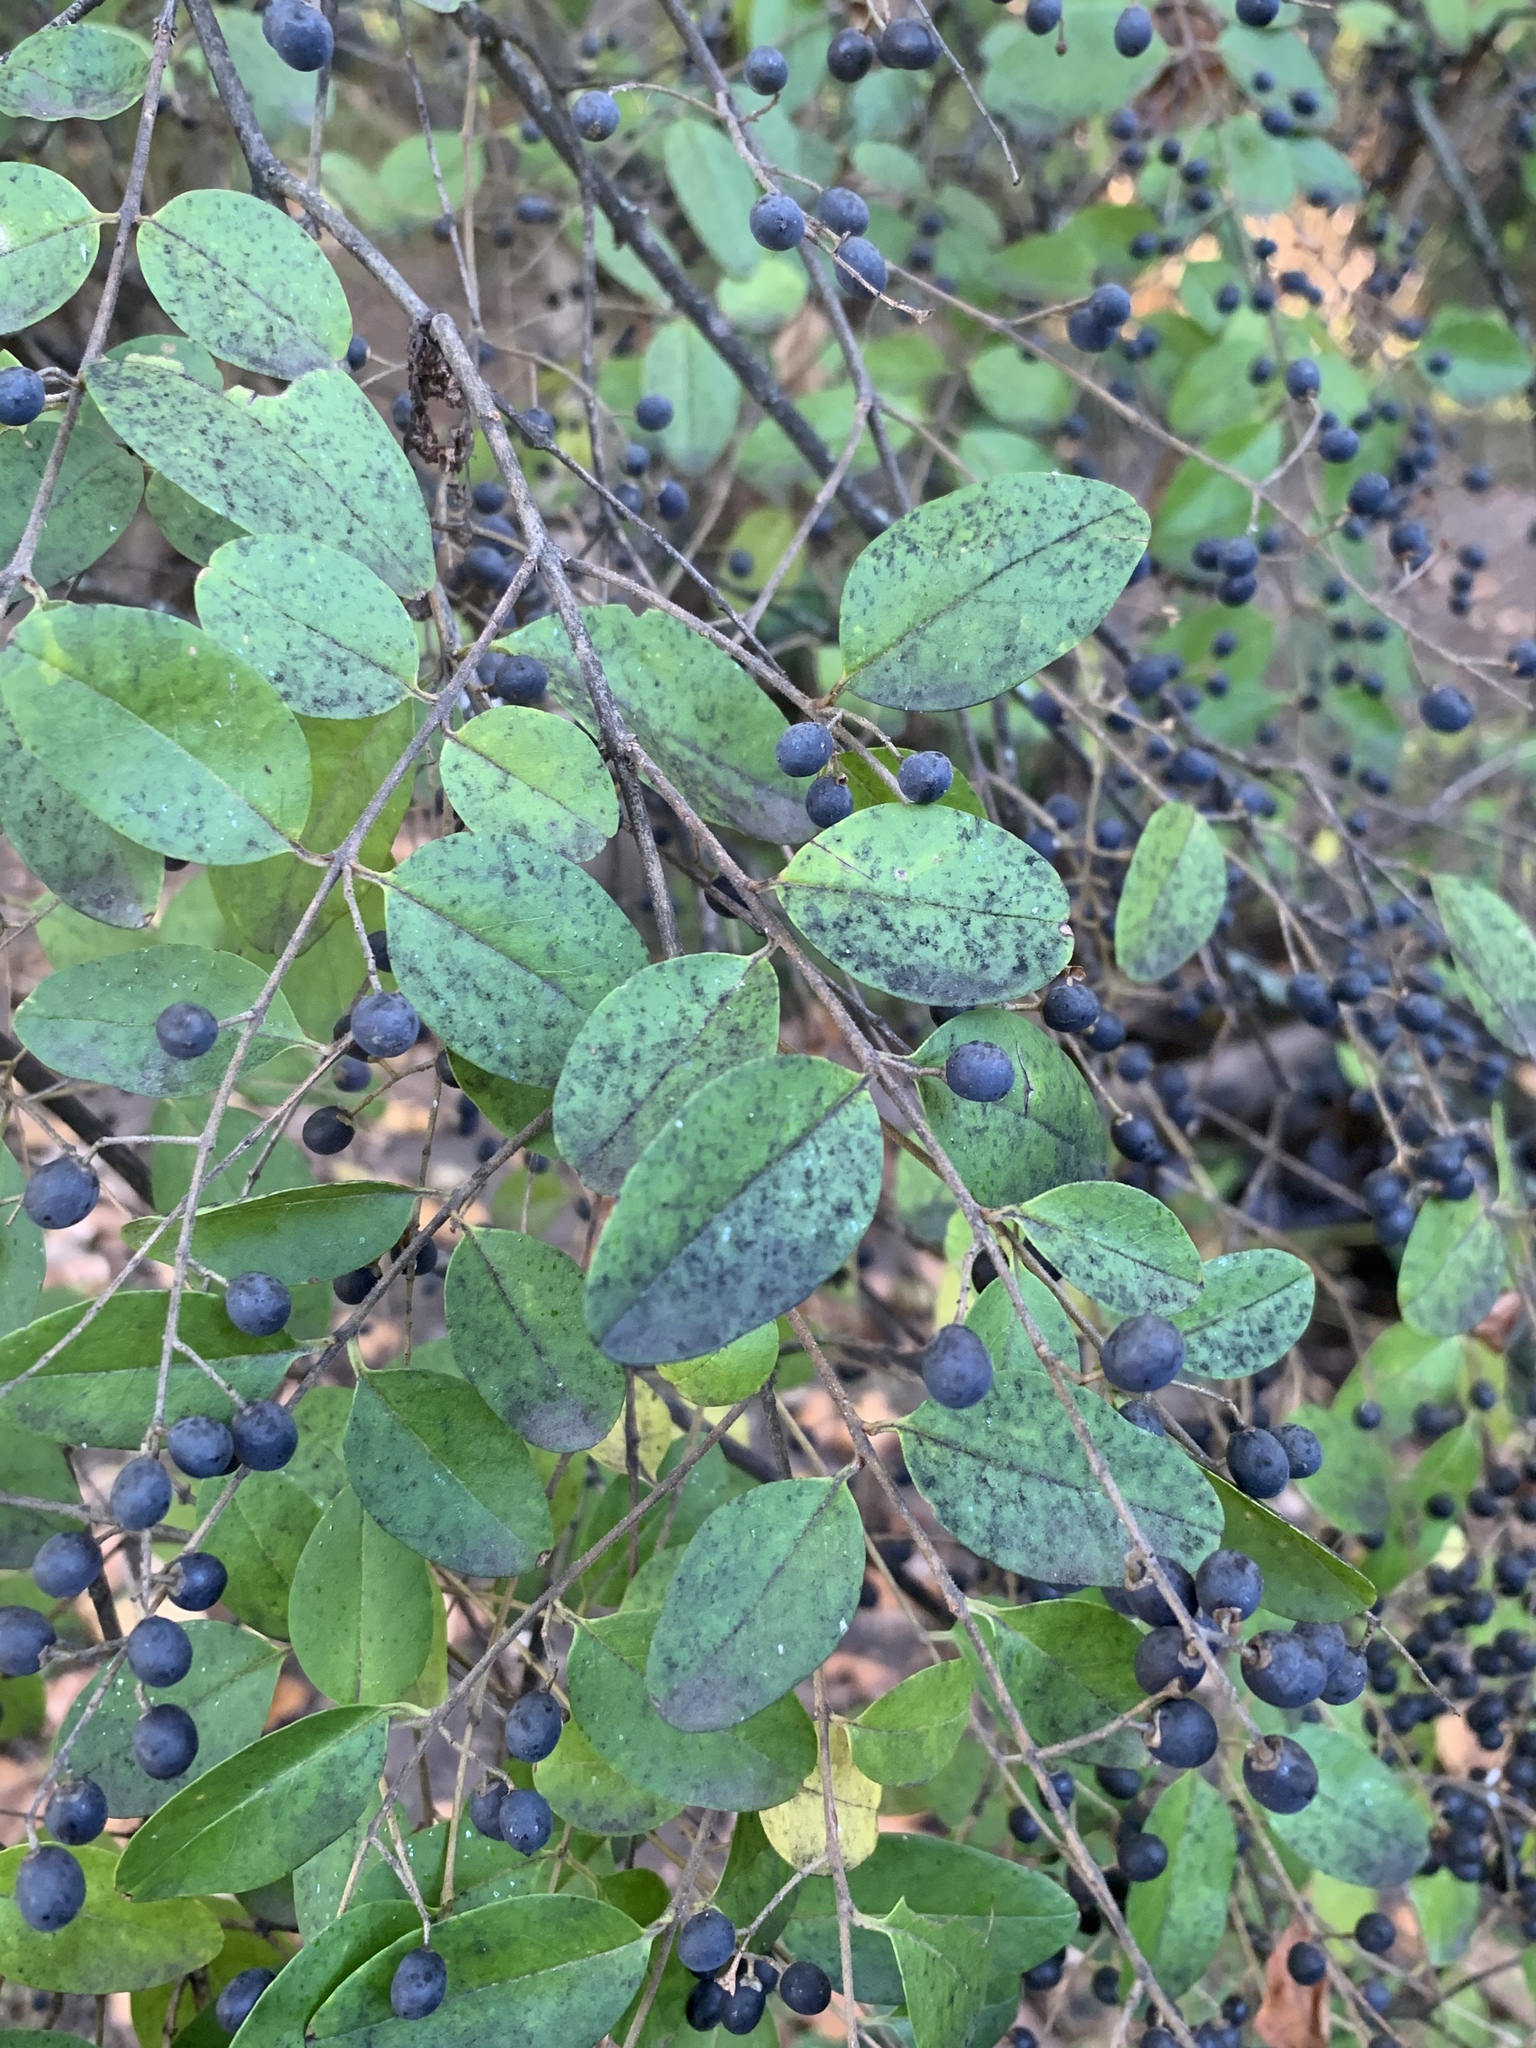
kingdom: Plantae
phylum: Tracheophyta
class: Magnoliopsida
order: Lamiales
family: Oleaceae
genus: Ligustrum
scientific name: Ligustrum sinense
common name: Chinese privet
